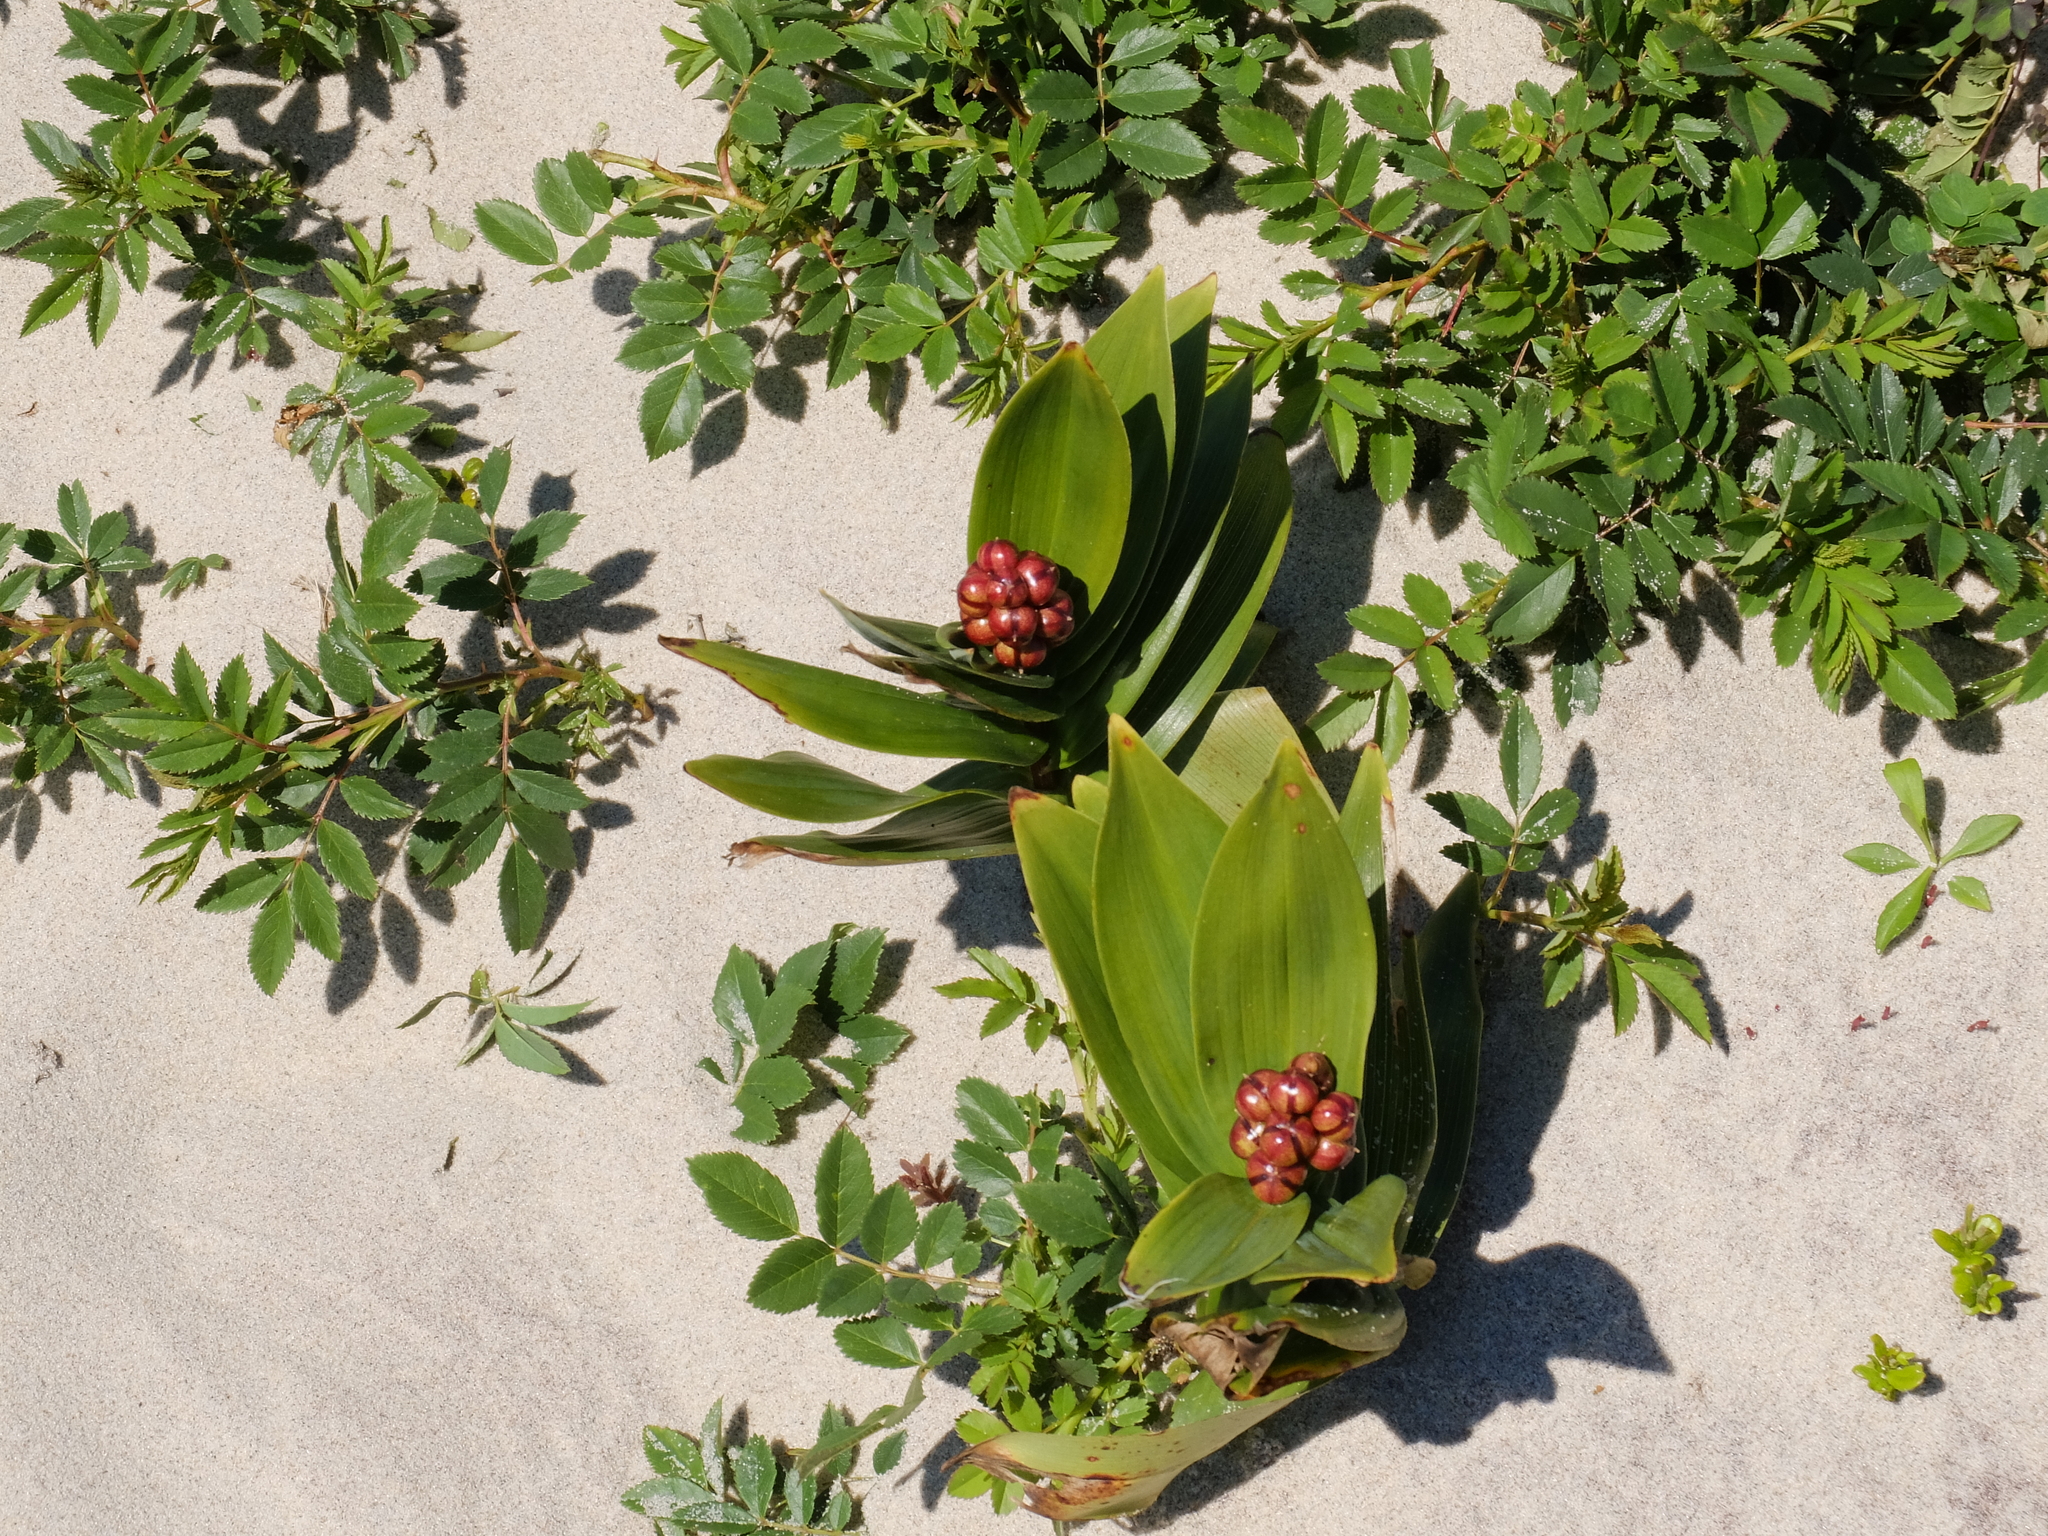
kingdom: Plantae
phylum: Tracheophyta
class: Liliopsida
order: Asparagales
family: Asparagaceae
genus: Maianthemum
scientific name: Maianthemum stellatum
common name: Little false solomon's seal
